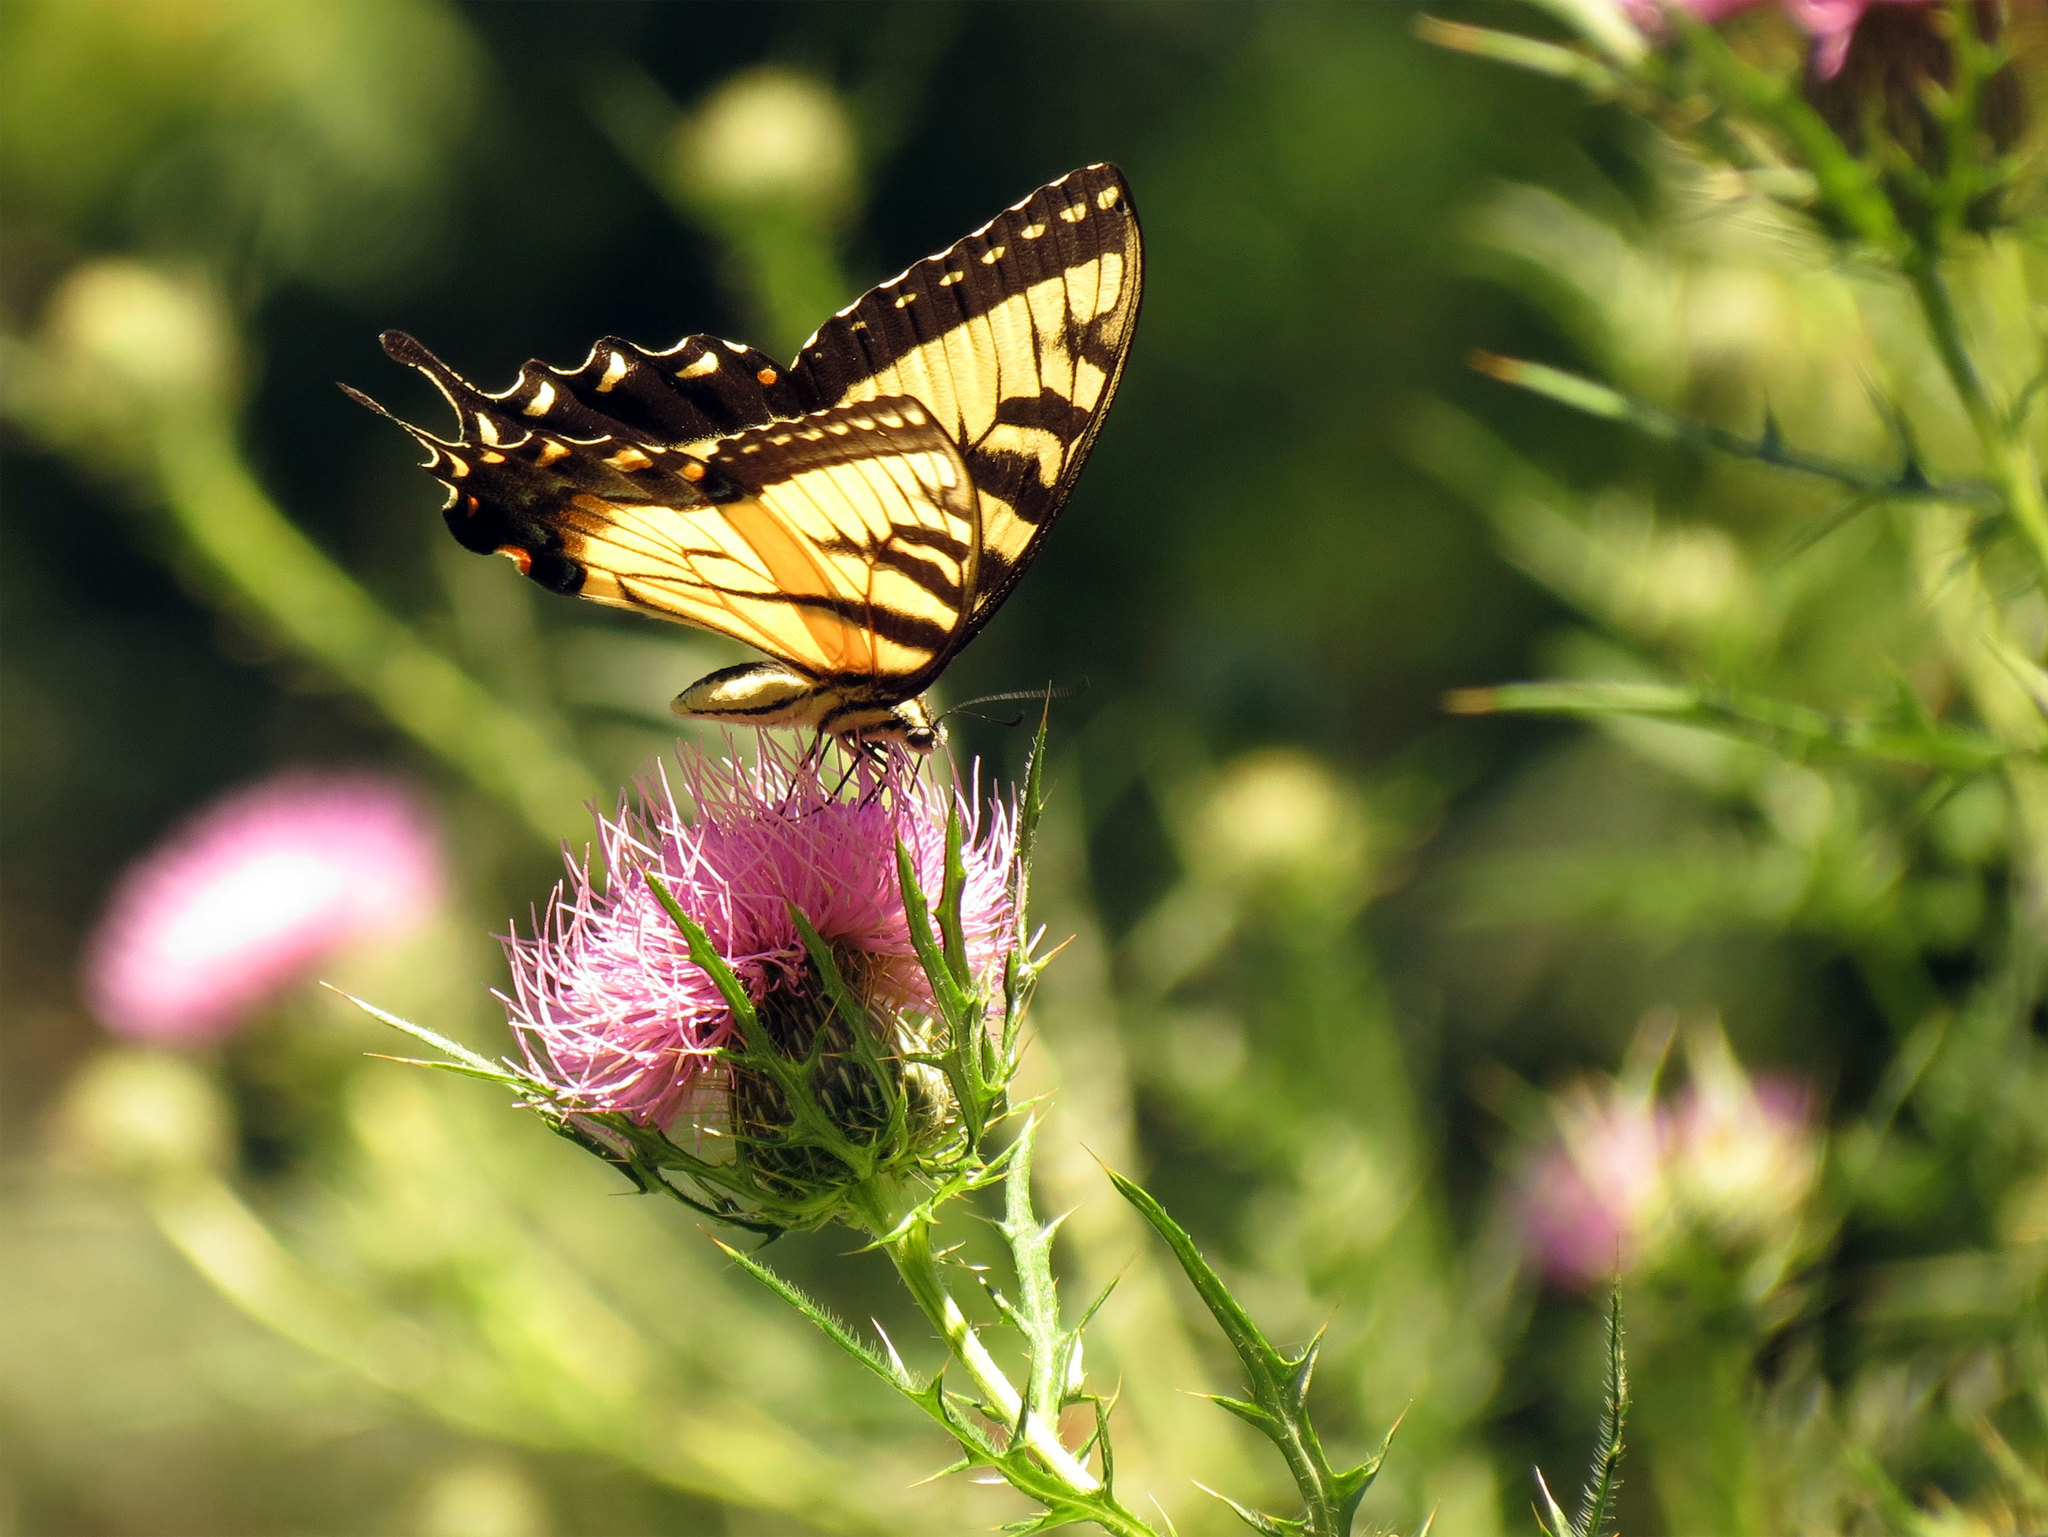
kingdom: Animalia
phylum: Arthropoda
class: Insecta
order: Lepidoptera
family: Papilionidae
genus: Papilio
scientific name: Papilio glaucus
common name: Tiger swallowtail
